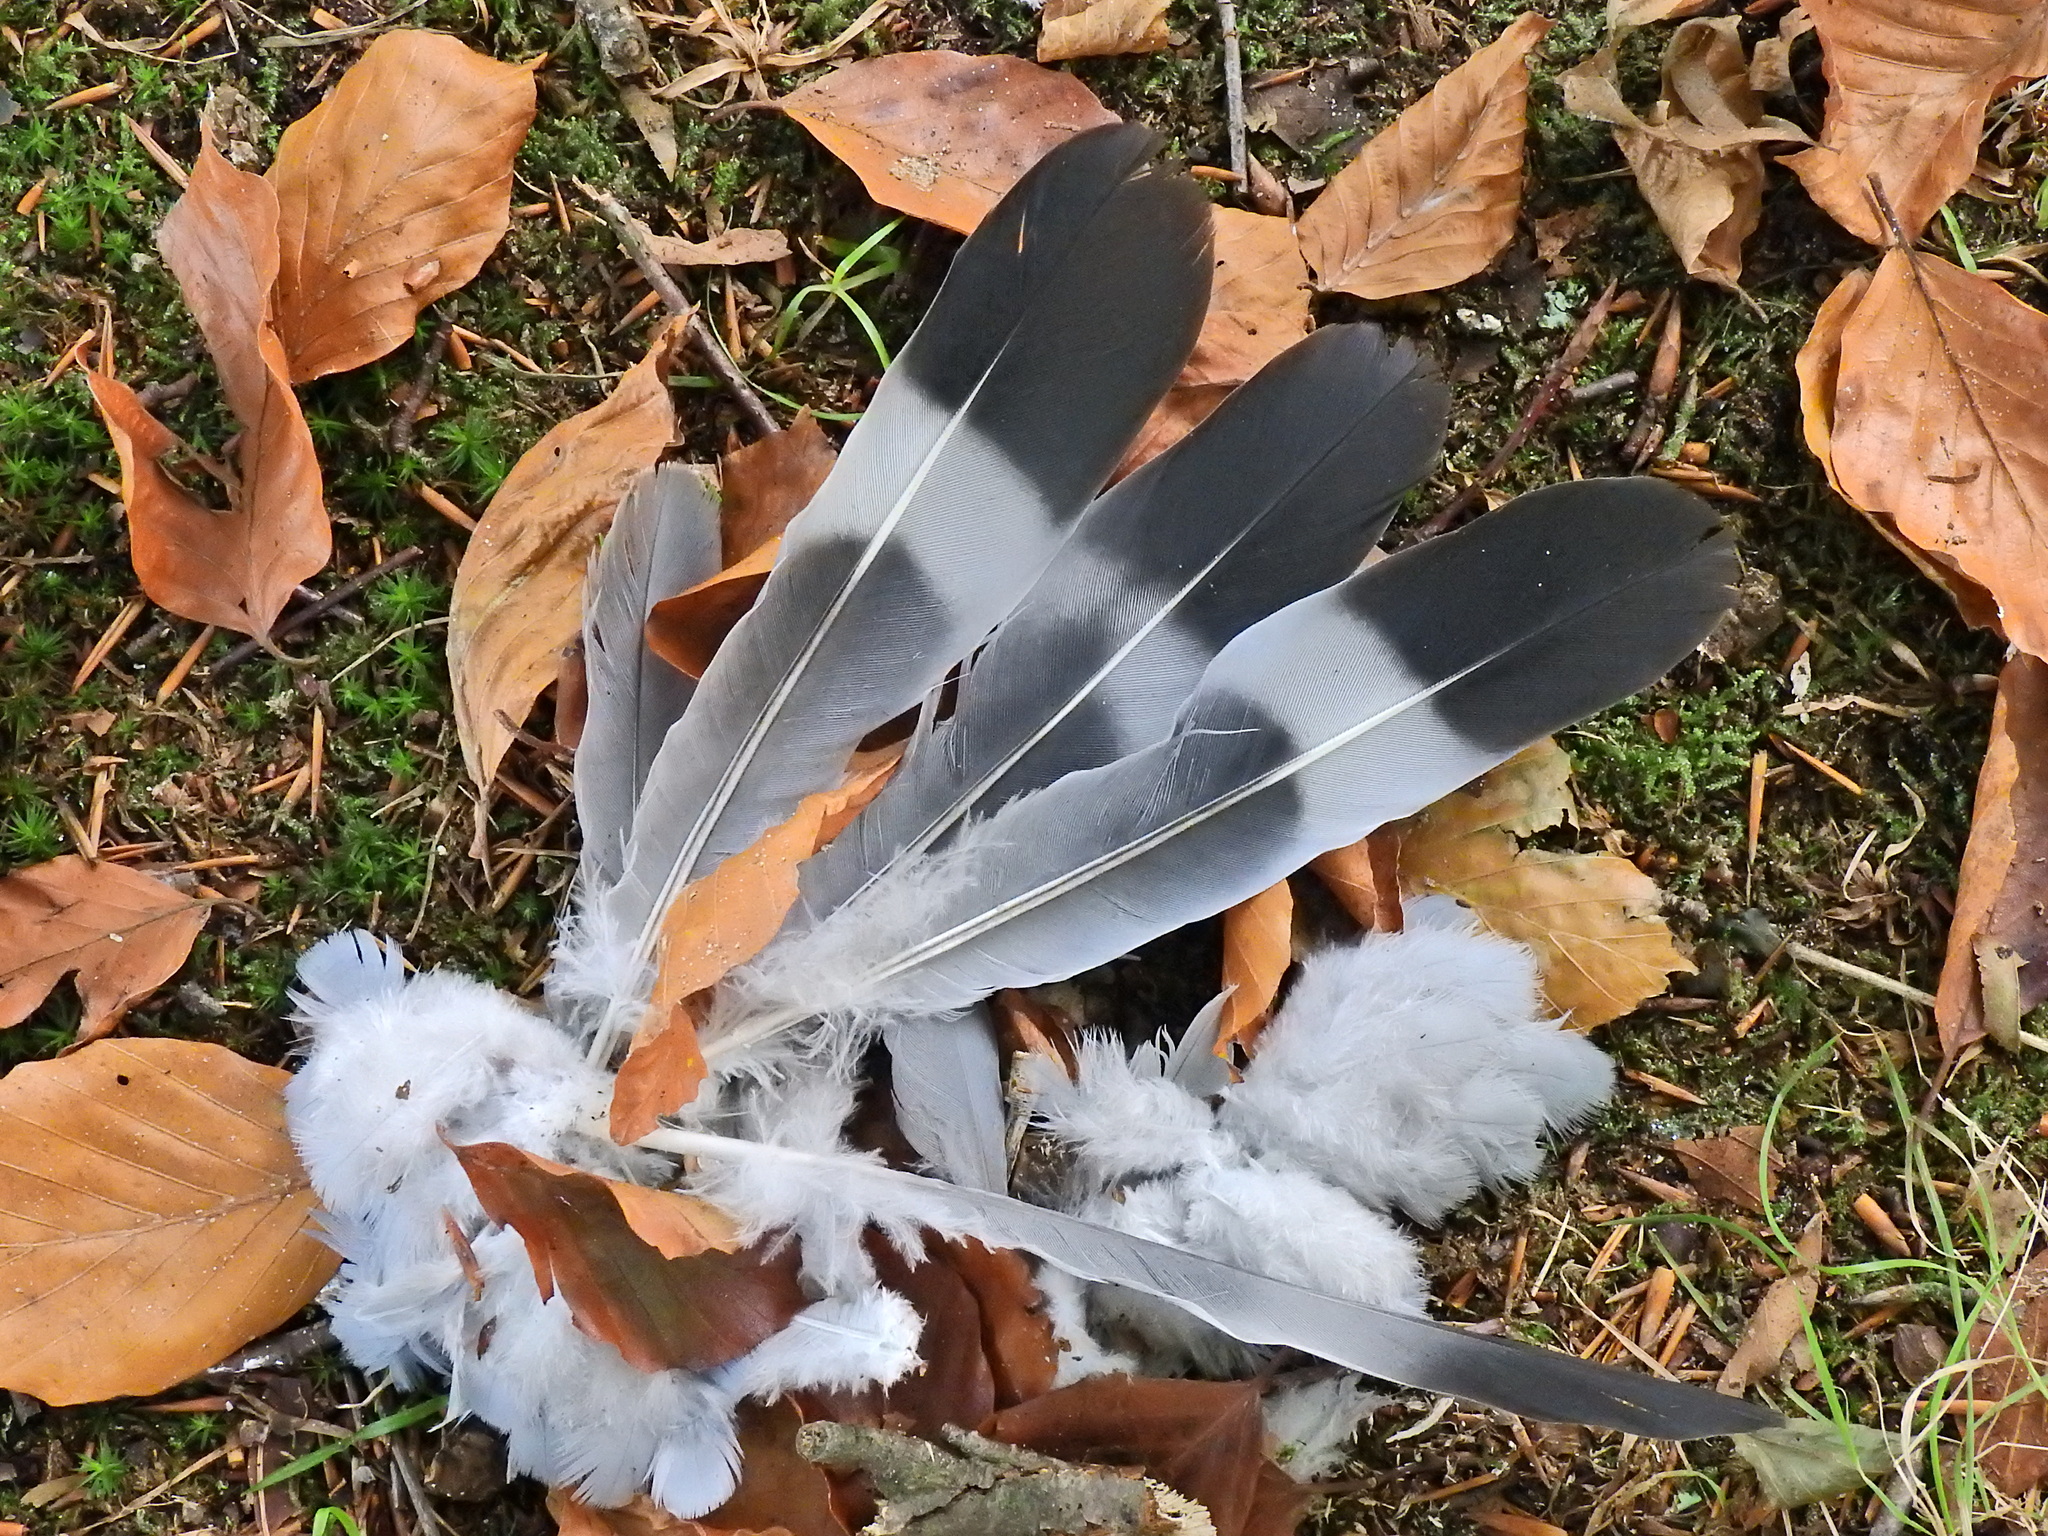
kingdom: Animalia
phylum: Chordata
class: Aves
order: Columbiformes
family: Columbidae
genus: Columba
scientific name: Columba palumbus
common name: Common wood pigeon
